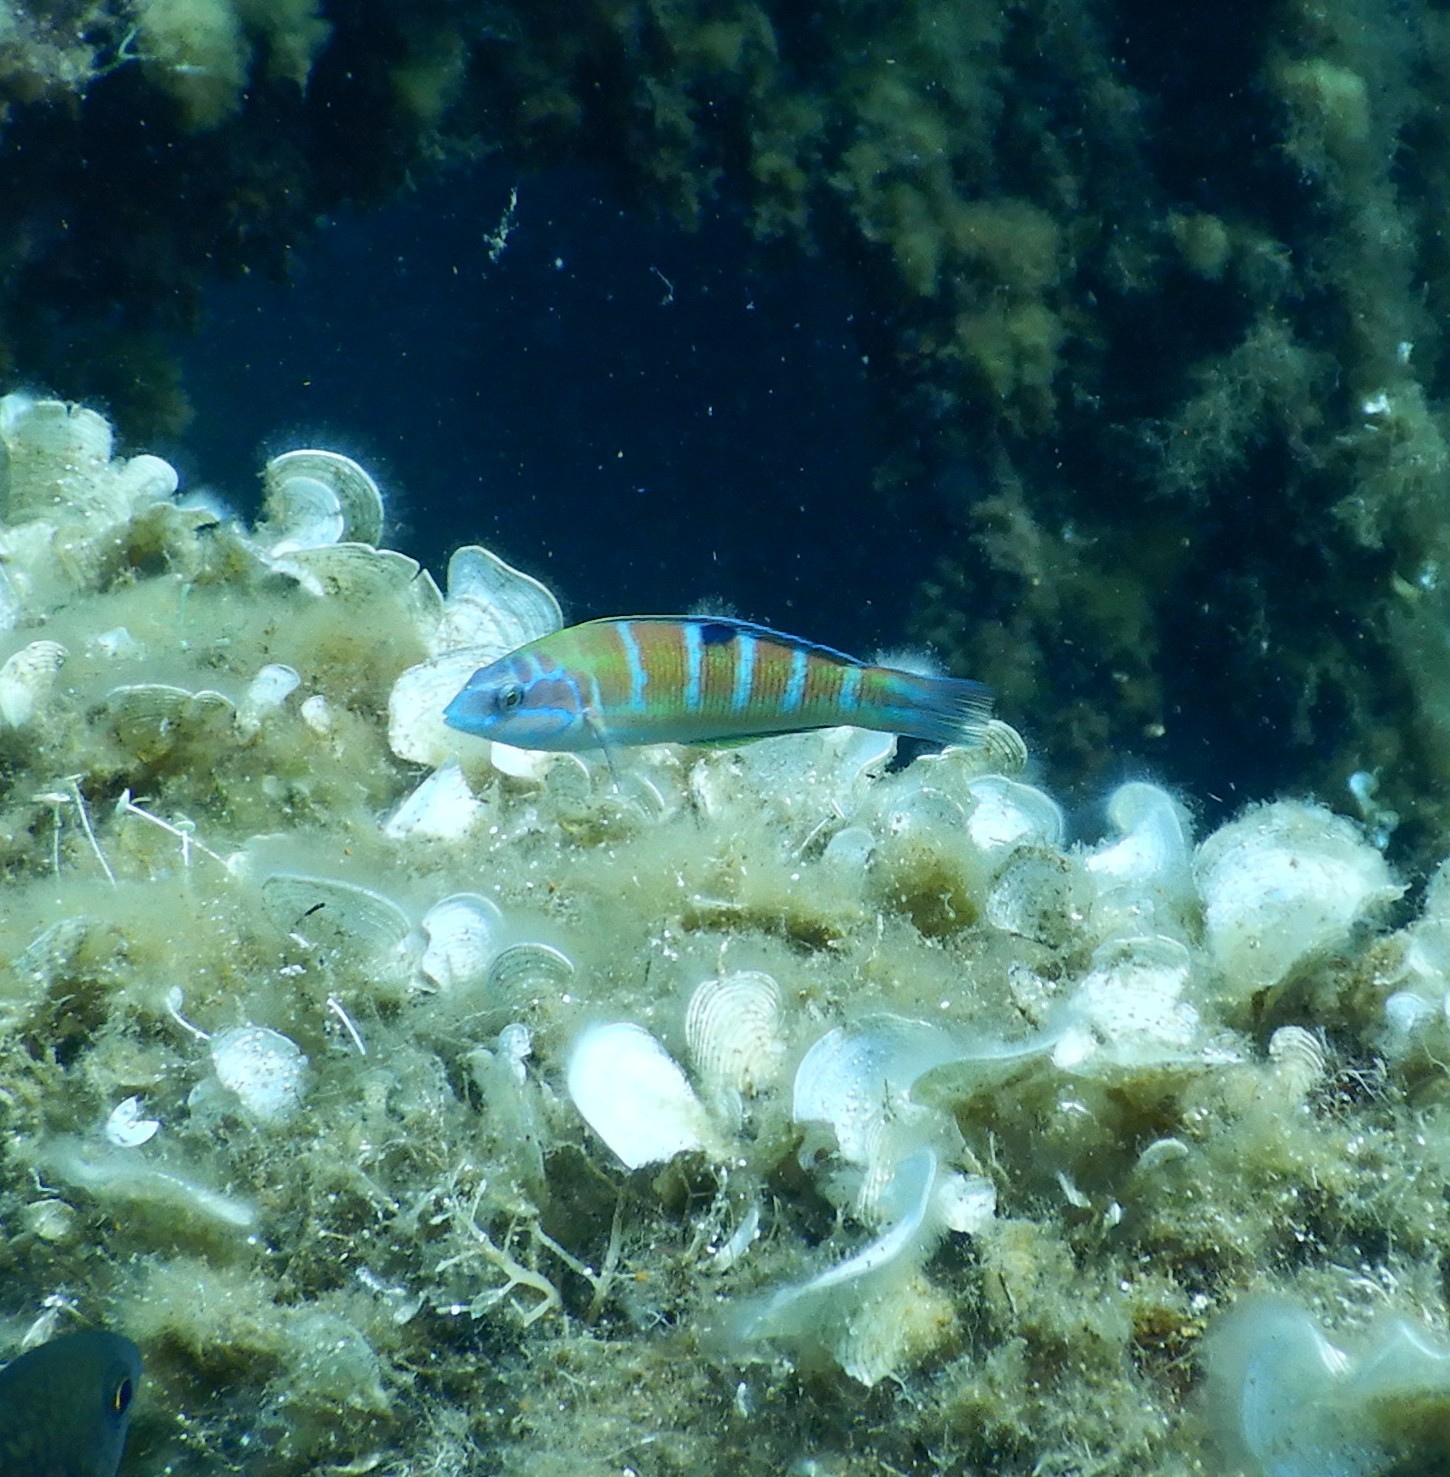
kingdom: Animalia
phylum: Chordata
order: Perciformes
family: Labridae
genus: Thalassoma
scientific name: Thalassoma pavo
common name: Ornate wrasse
